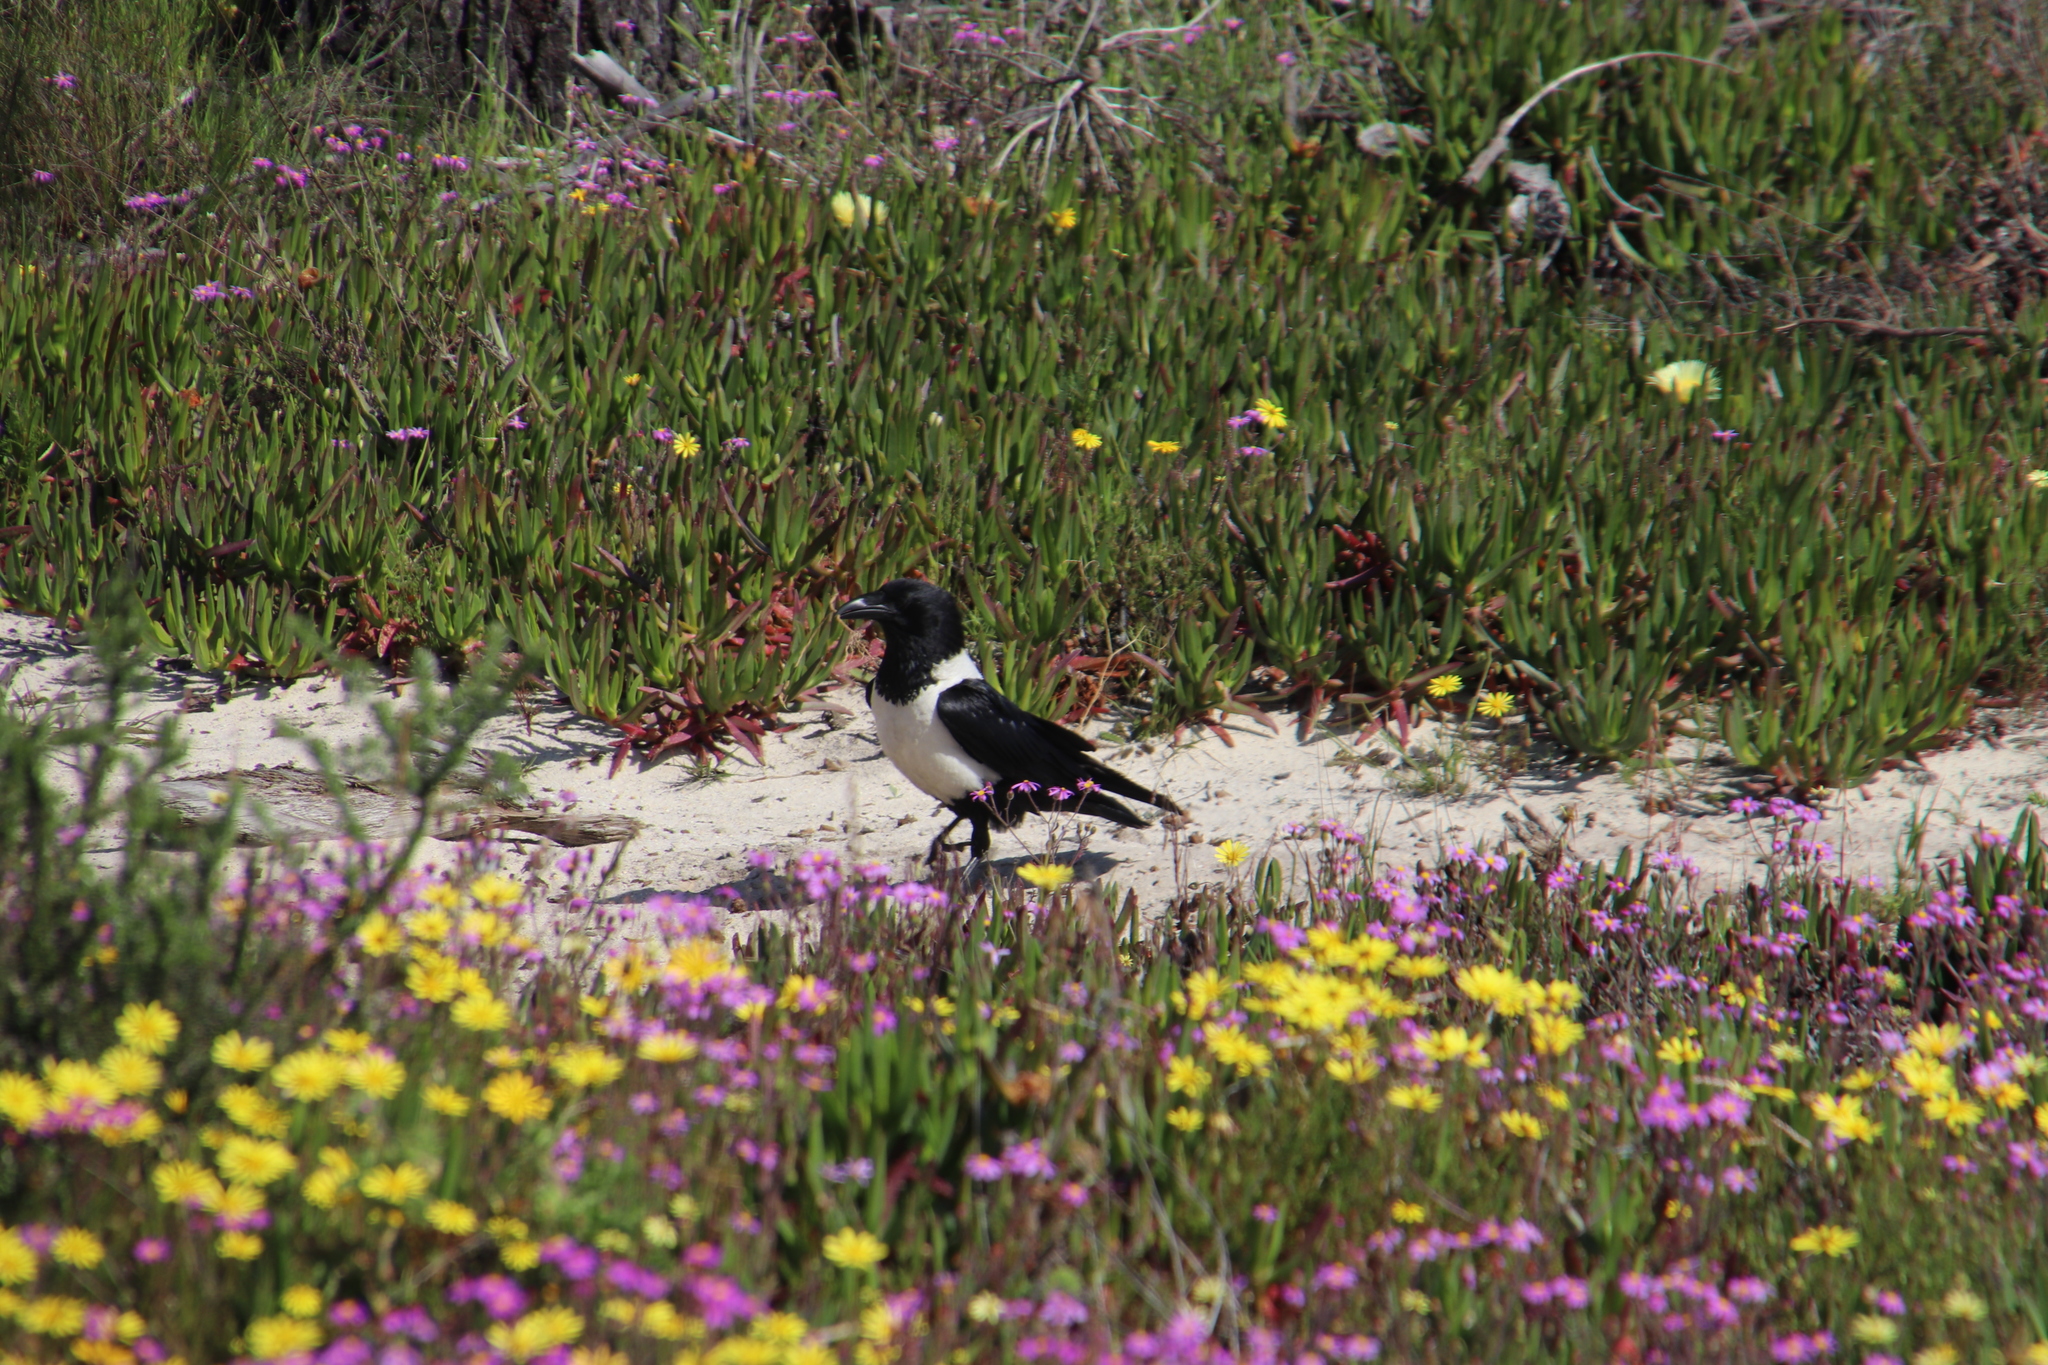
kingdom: Animalia
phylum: Chordata
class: Aves
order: Passeriformes
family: Corvidae
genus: Corvus
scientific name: Corvus albus
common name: Pied crow
